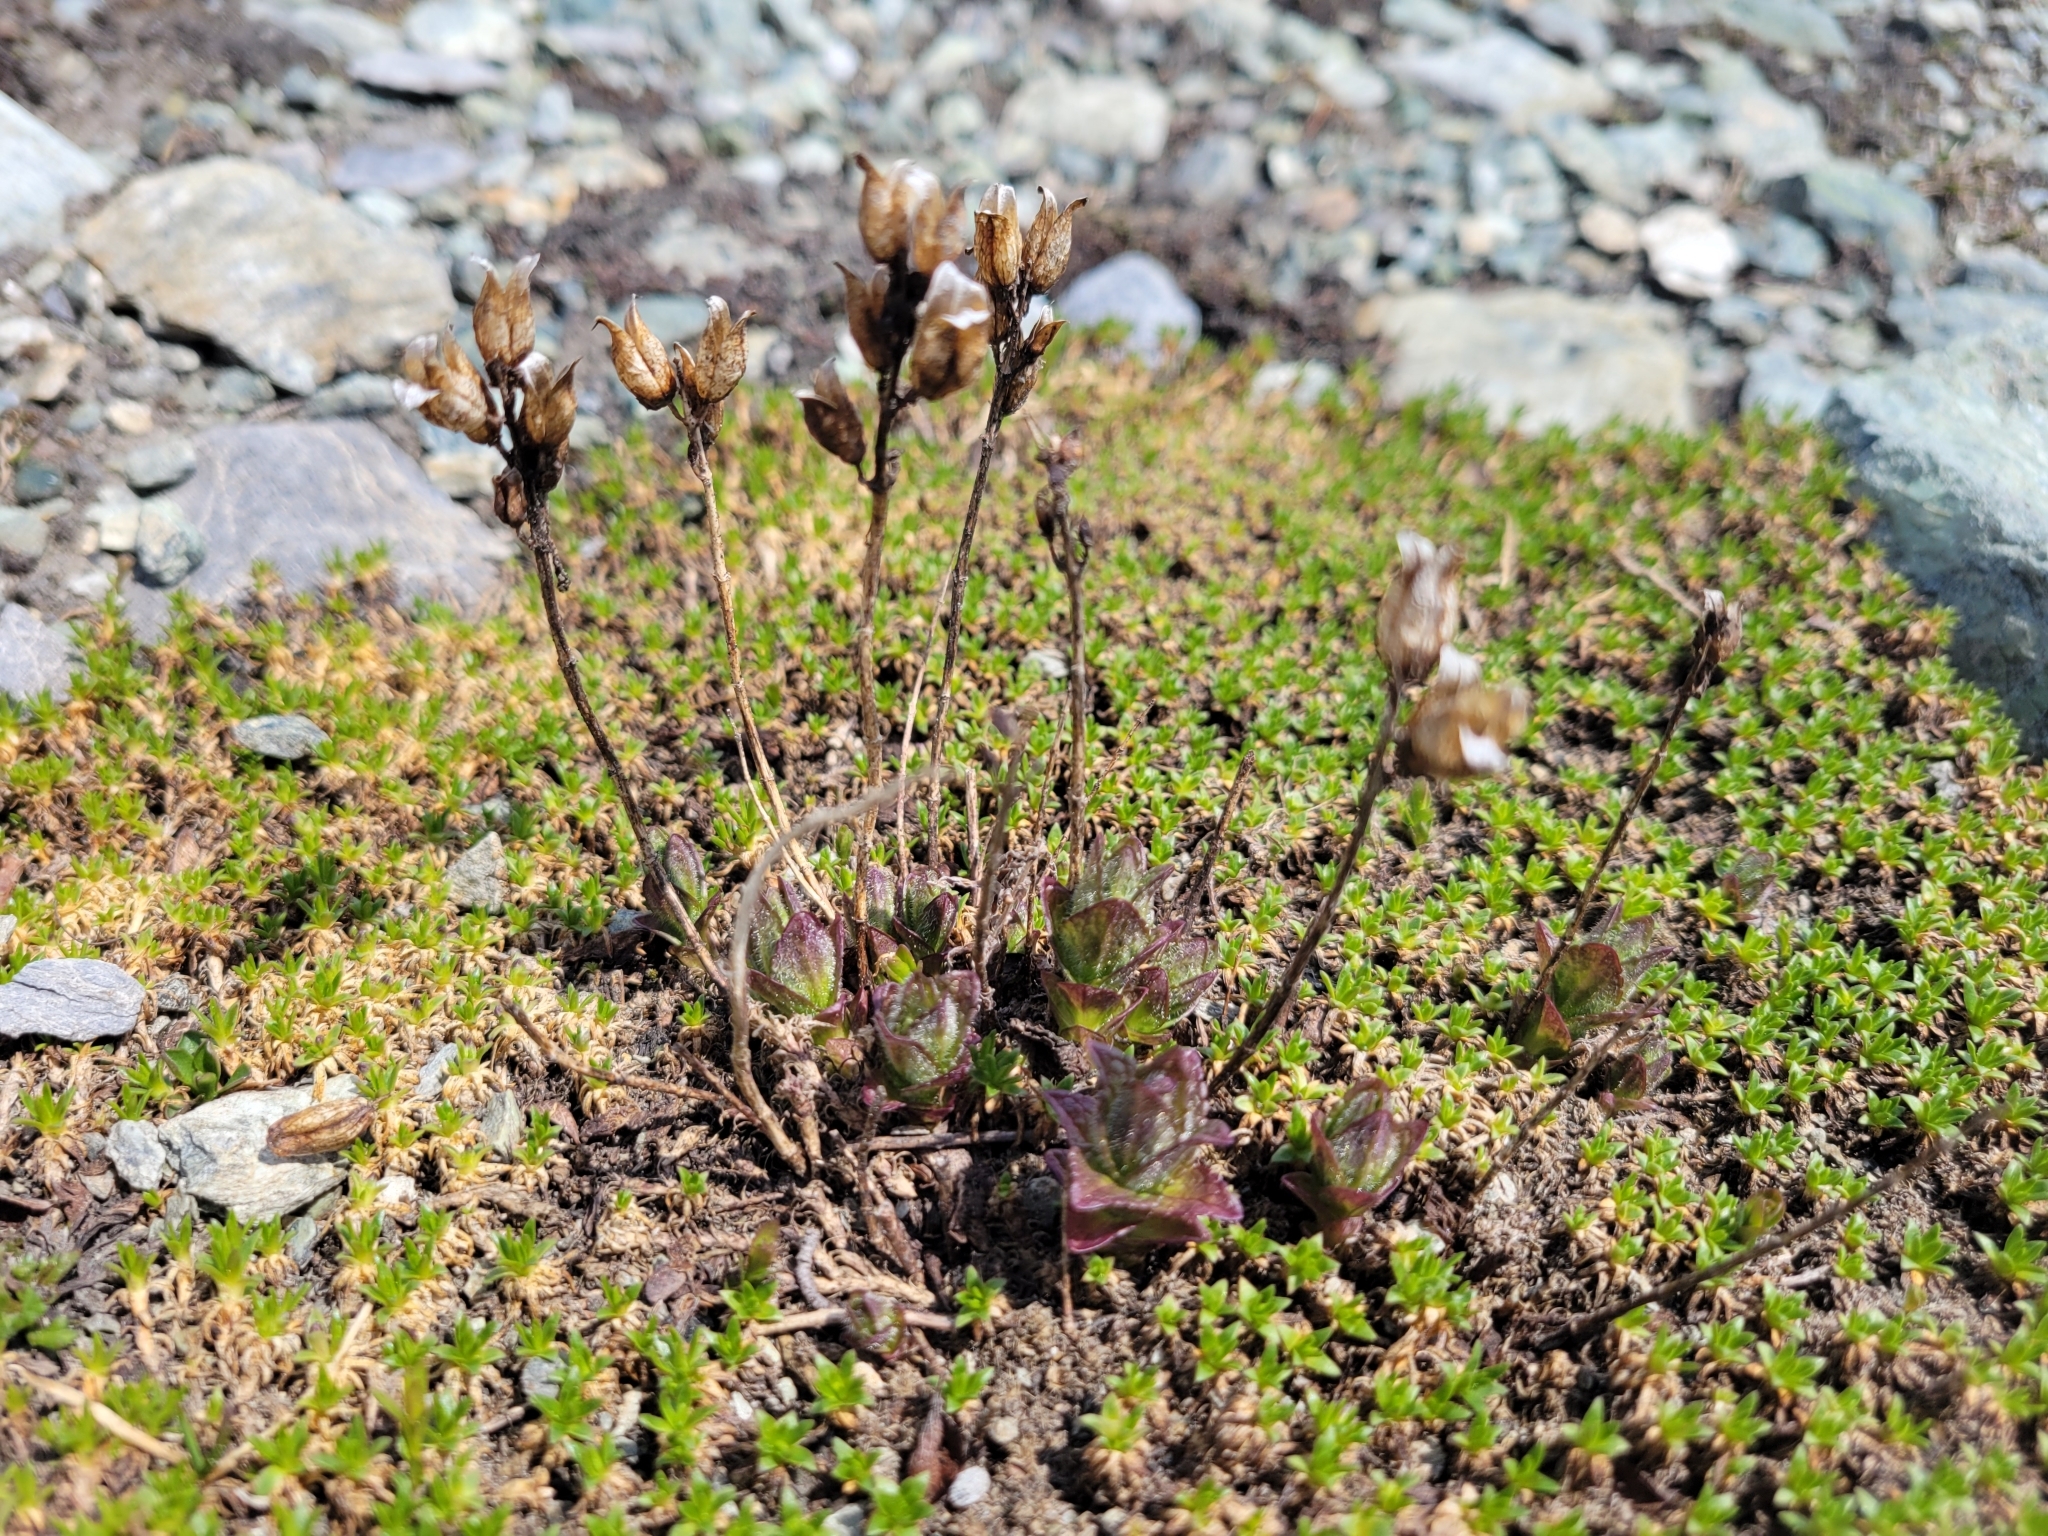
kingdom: Plantae
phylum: Tracheophyta
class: Magnoliopsida
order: Lamiales
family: Orobanchaceae
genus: Bartsia
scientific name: Bartsia alpina
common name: Alpine bartsia
